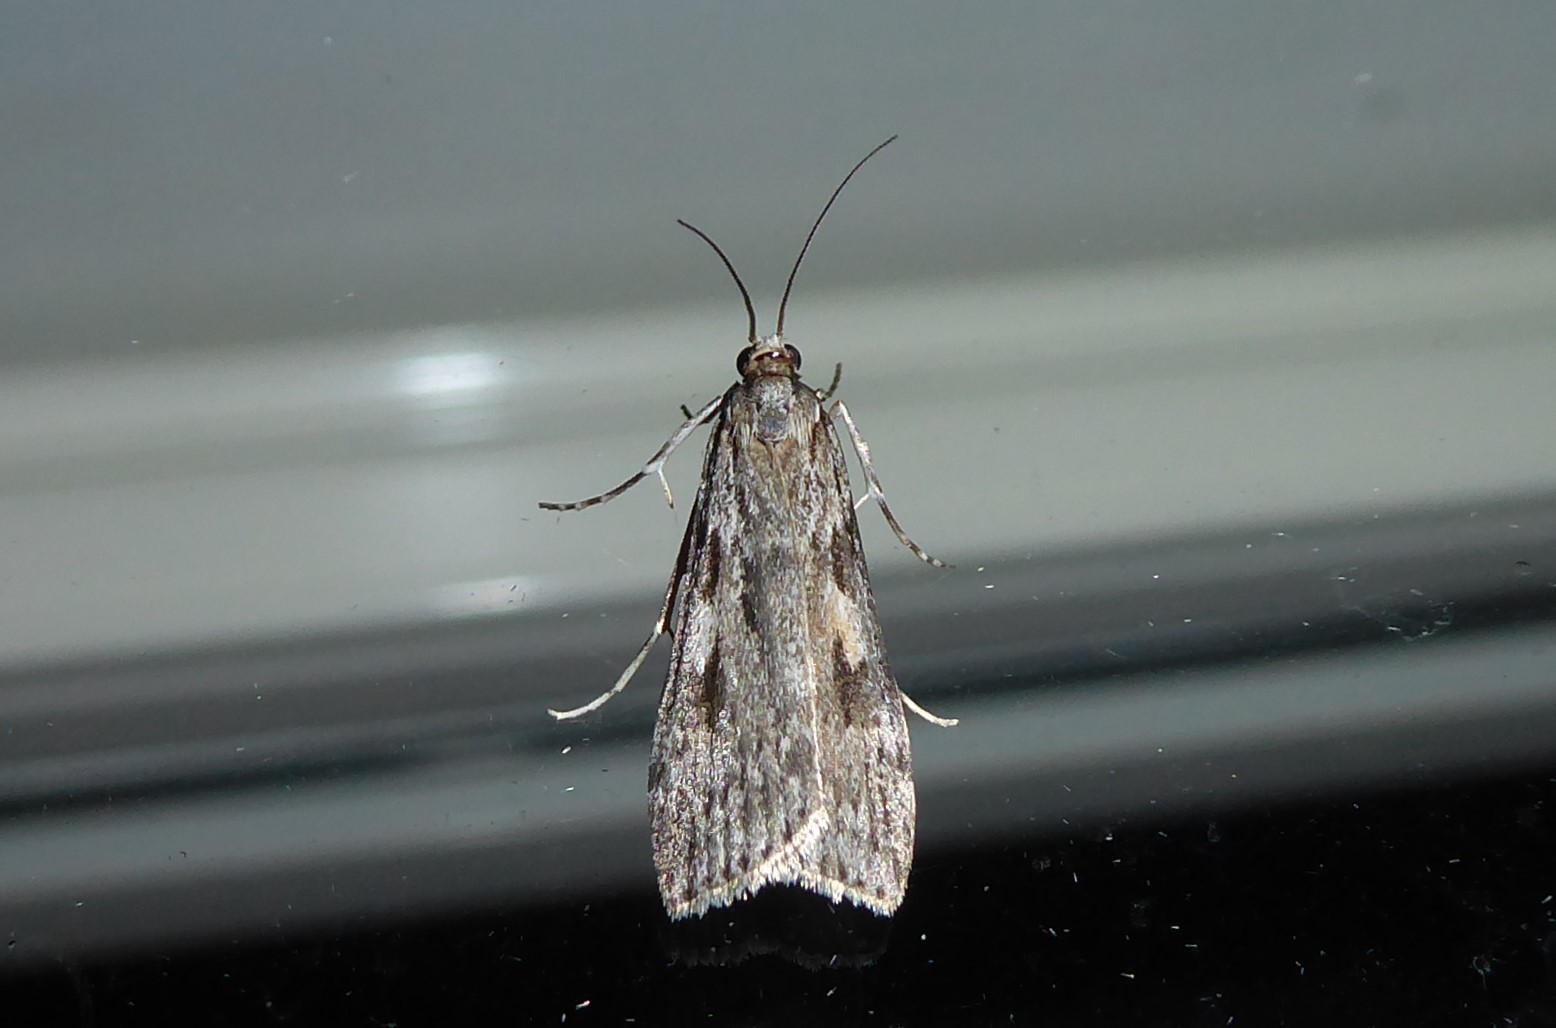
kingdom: Animalia
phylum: Arthropoda
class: Insecta
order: Lepidoptera
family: Crambidae
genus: Scoparia
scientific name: Scoparia halopis
